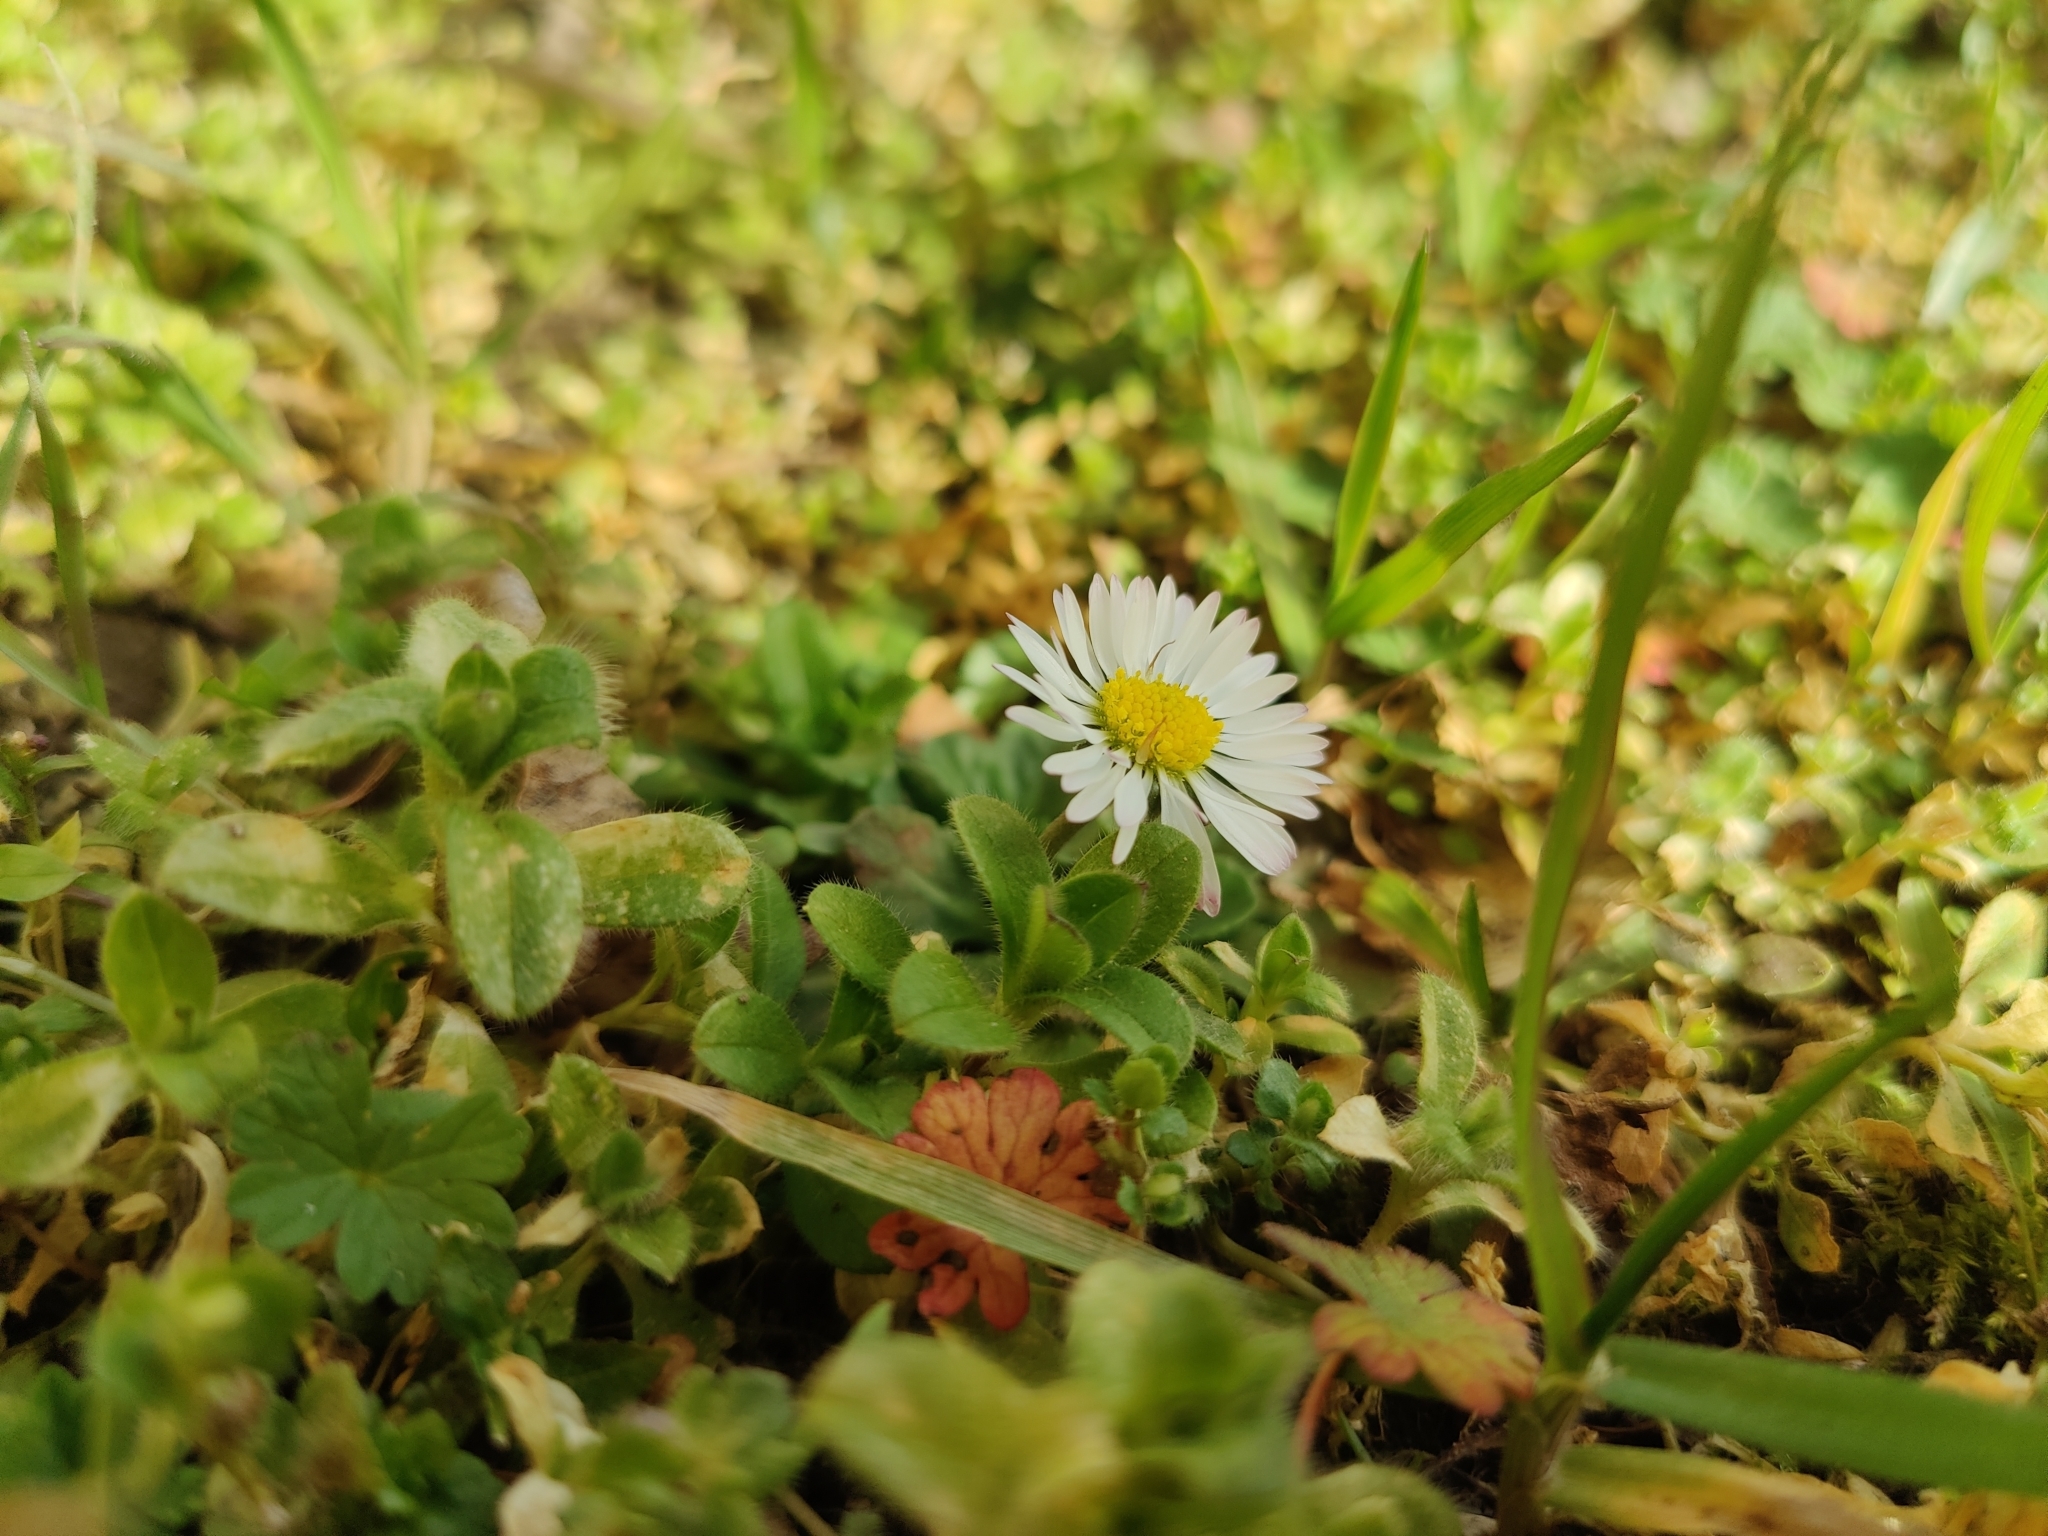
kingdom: Plantae
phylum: Tracheophyta
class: Magnoliopsida
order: Asterales
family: Asteraceae
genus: Bellis
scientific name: Bellis perennis
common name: Lawndaisy
